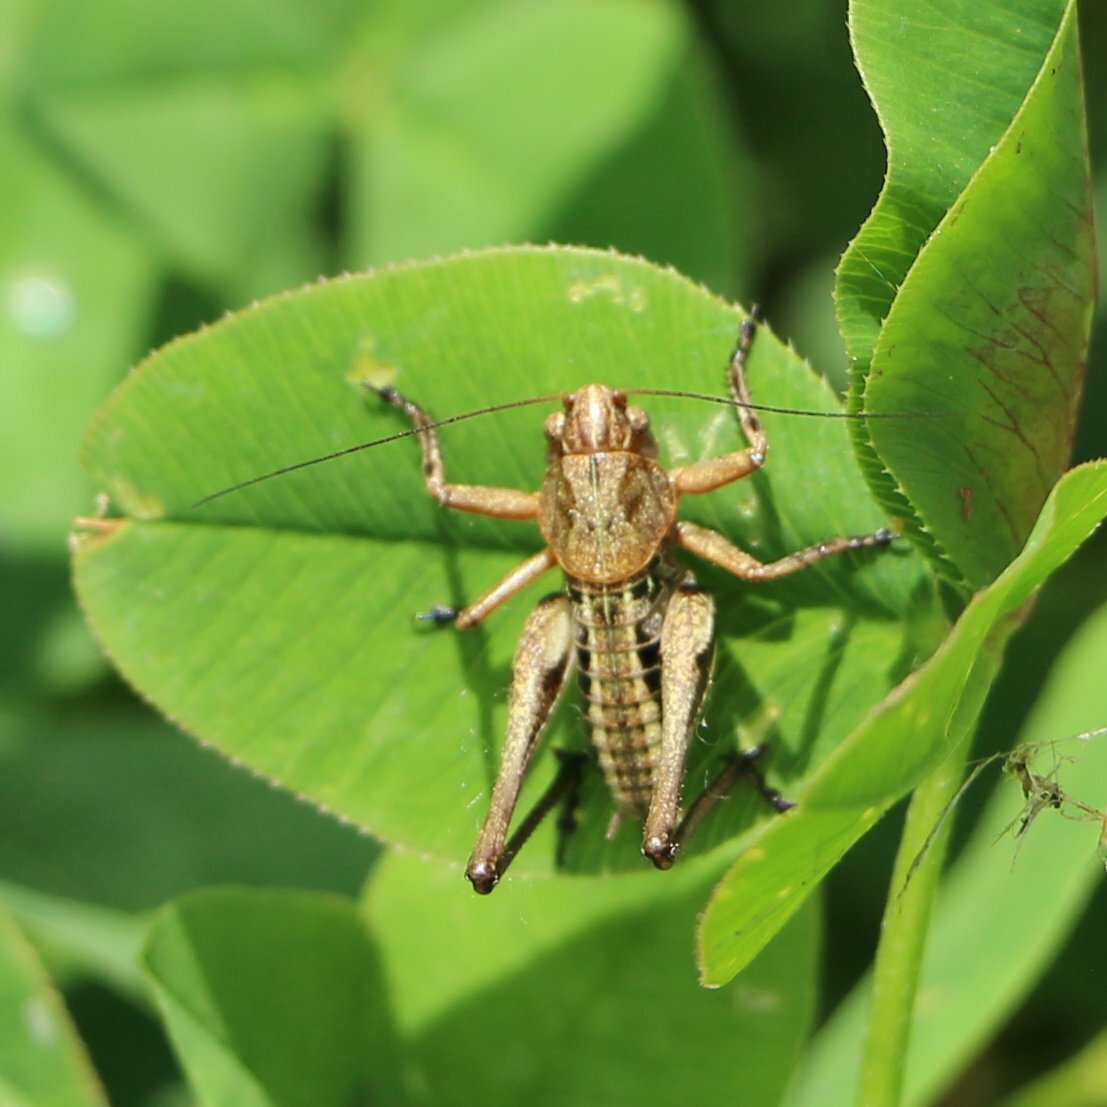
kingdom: Animalia
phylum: Arthropoda
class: Insecta
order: Orthoptera
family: Tettigoniidae
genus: Decticus
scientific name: Decticus albifrons
